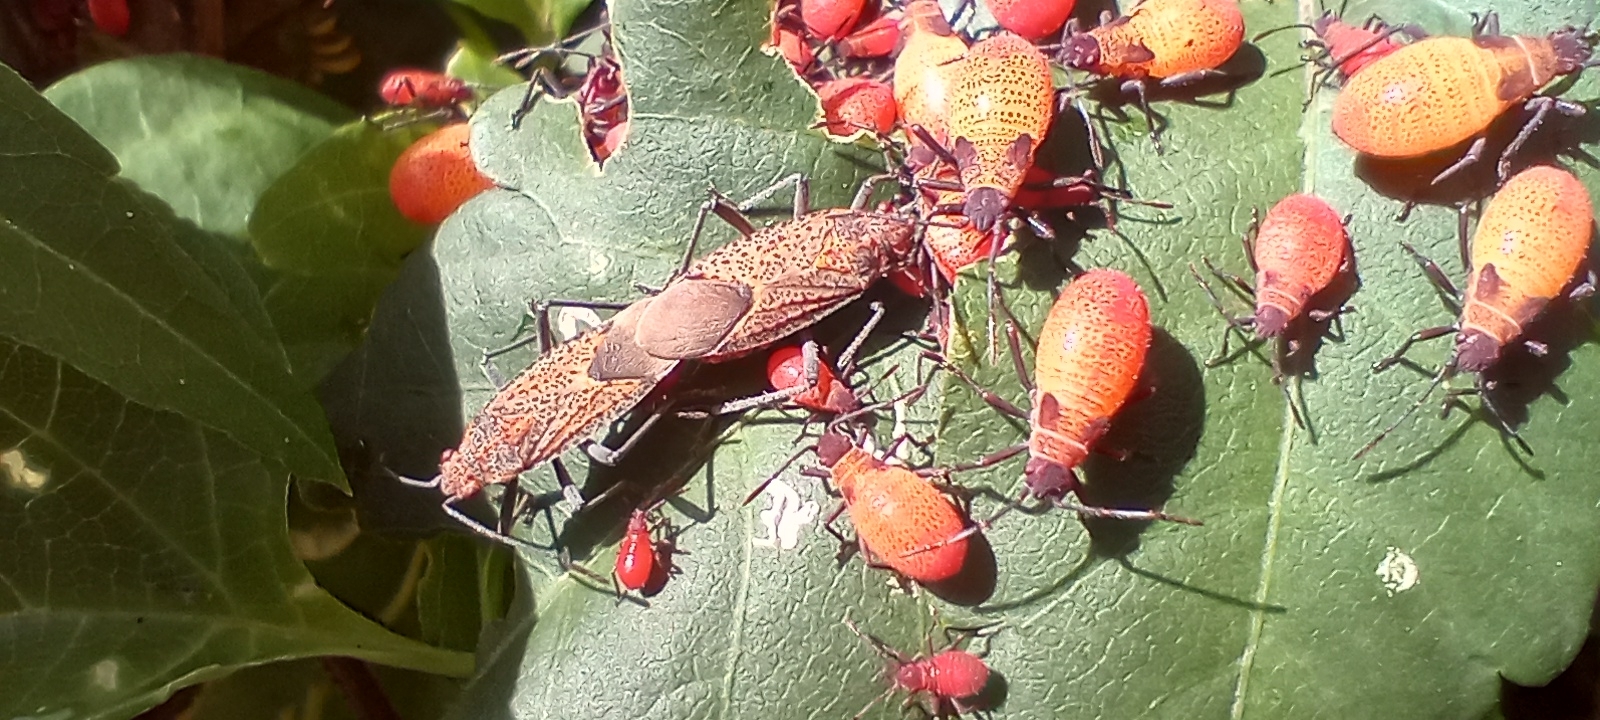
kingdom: Animalia
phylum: Arthropoda
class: Insecta
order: Hemiptera
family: Rhopalidae
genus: Jadera
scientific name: Jadera choprai
